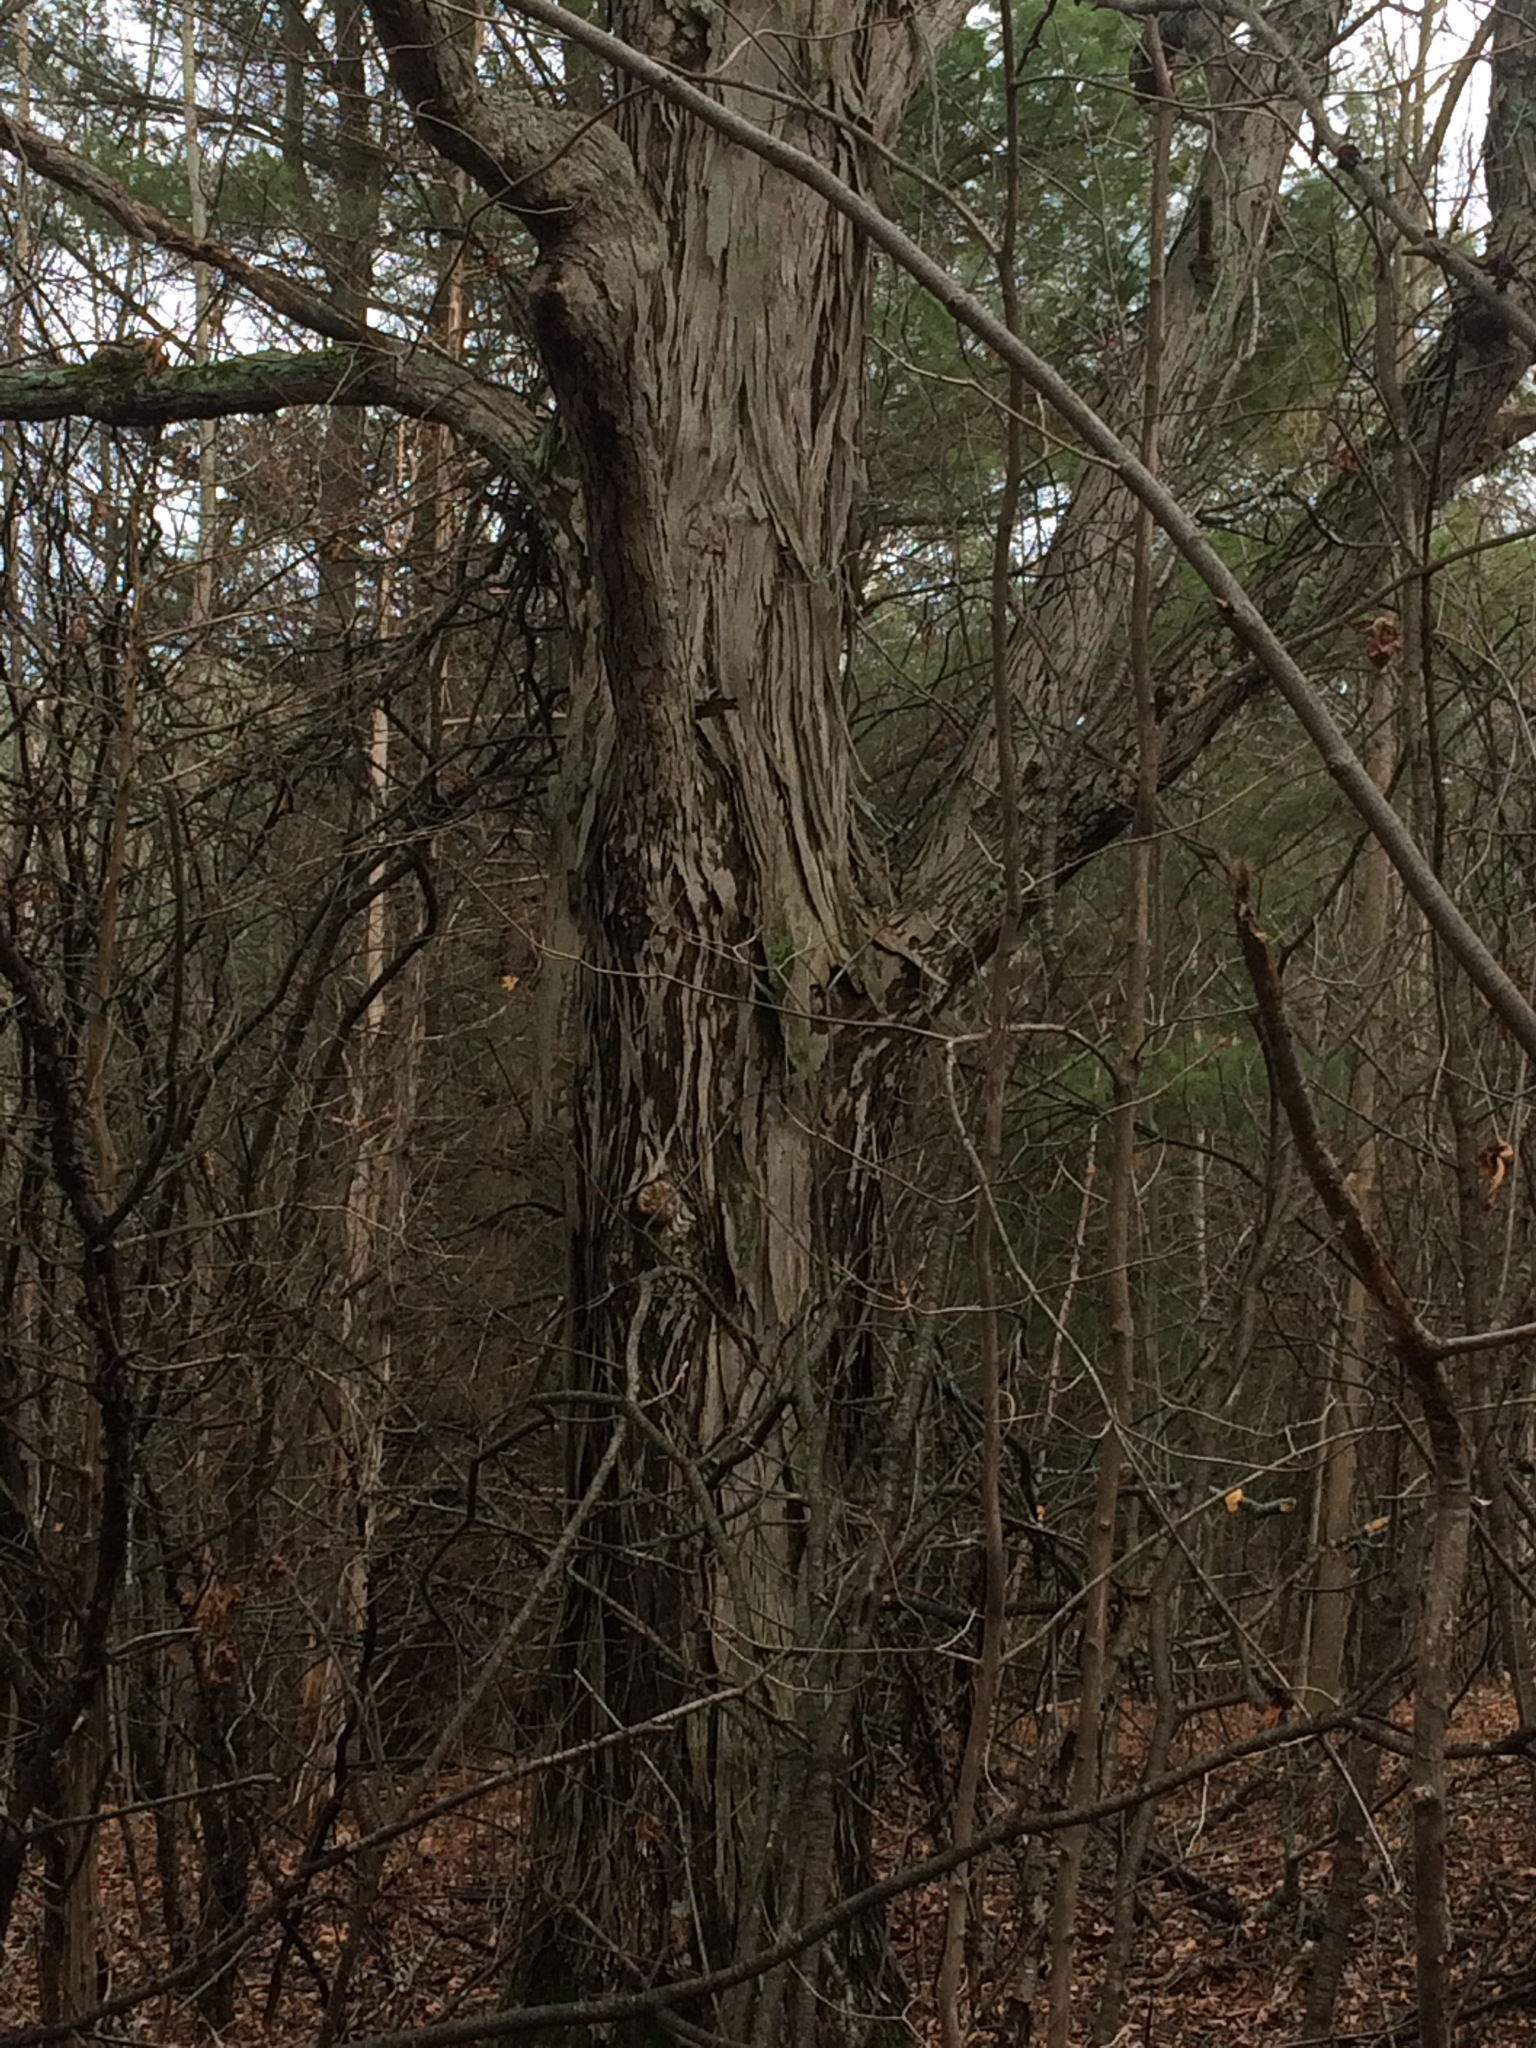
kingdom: Plantae
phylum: Tracheophyta
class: Magnoliopsida
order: Fagales
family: Juglandaceae
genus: Carya
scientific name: Carya ovata
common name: Shagbark hickory
